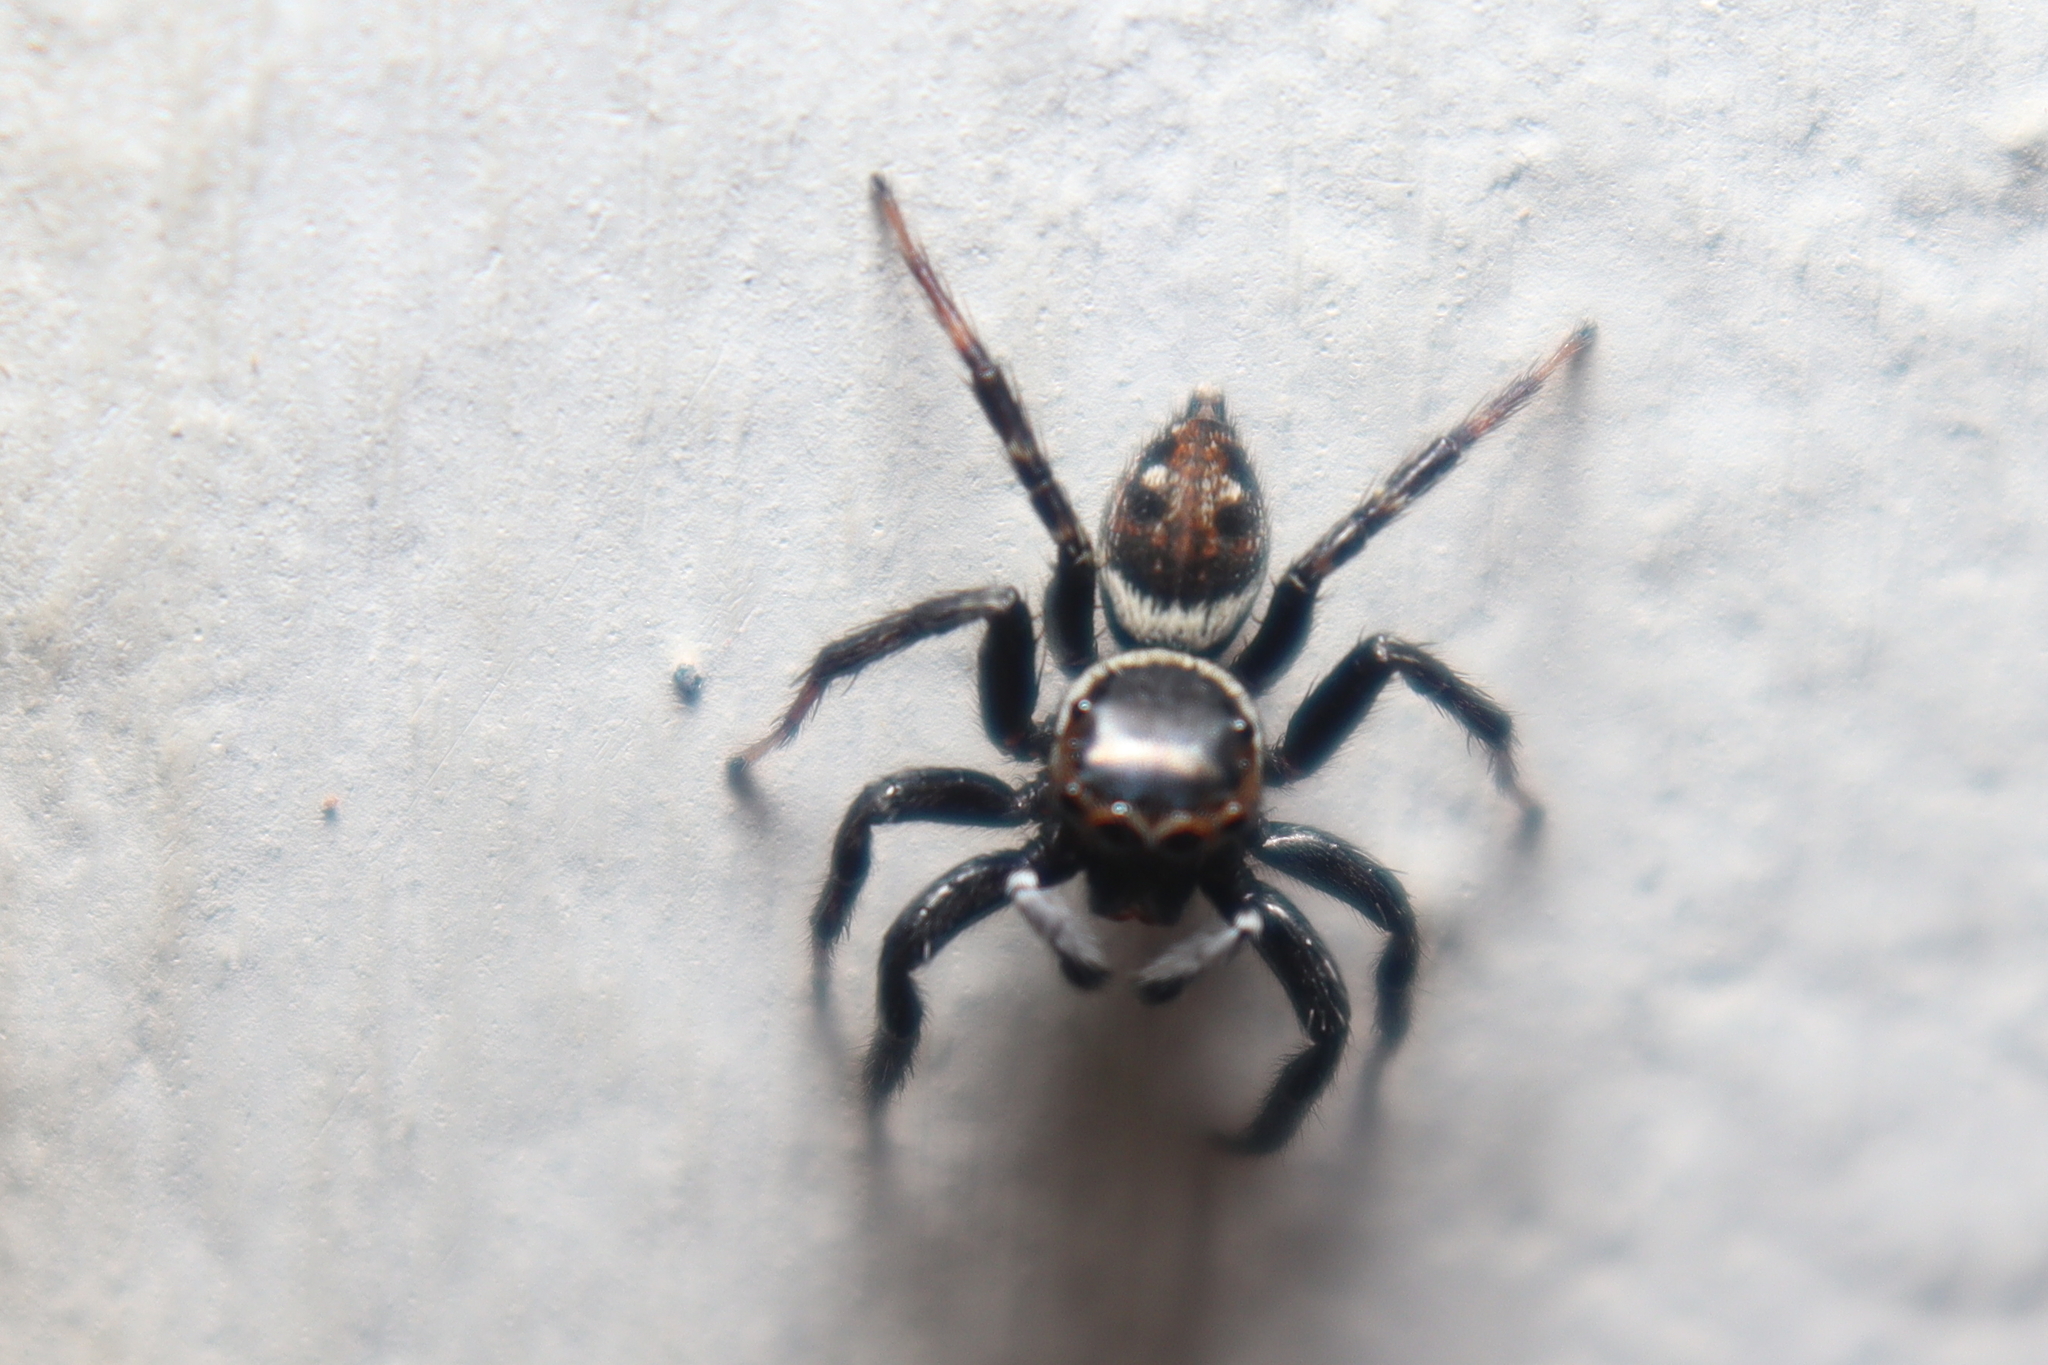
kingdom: Animalia
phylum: Arthropoda
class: Arachnida
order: Araneae
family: Salticidae
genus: Hasarius
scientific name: Hasarius adansoni
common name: Jumping spider
